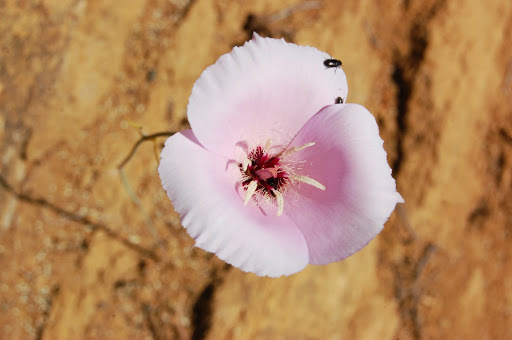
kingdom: Plantae
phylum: Tracheophyta
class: Liliopsida
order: Liliales
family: Liliaceae
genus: Calochortus
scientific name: Calochortus splendens
